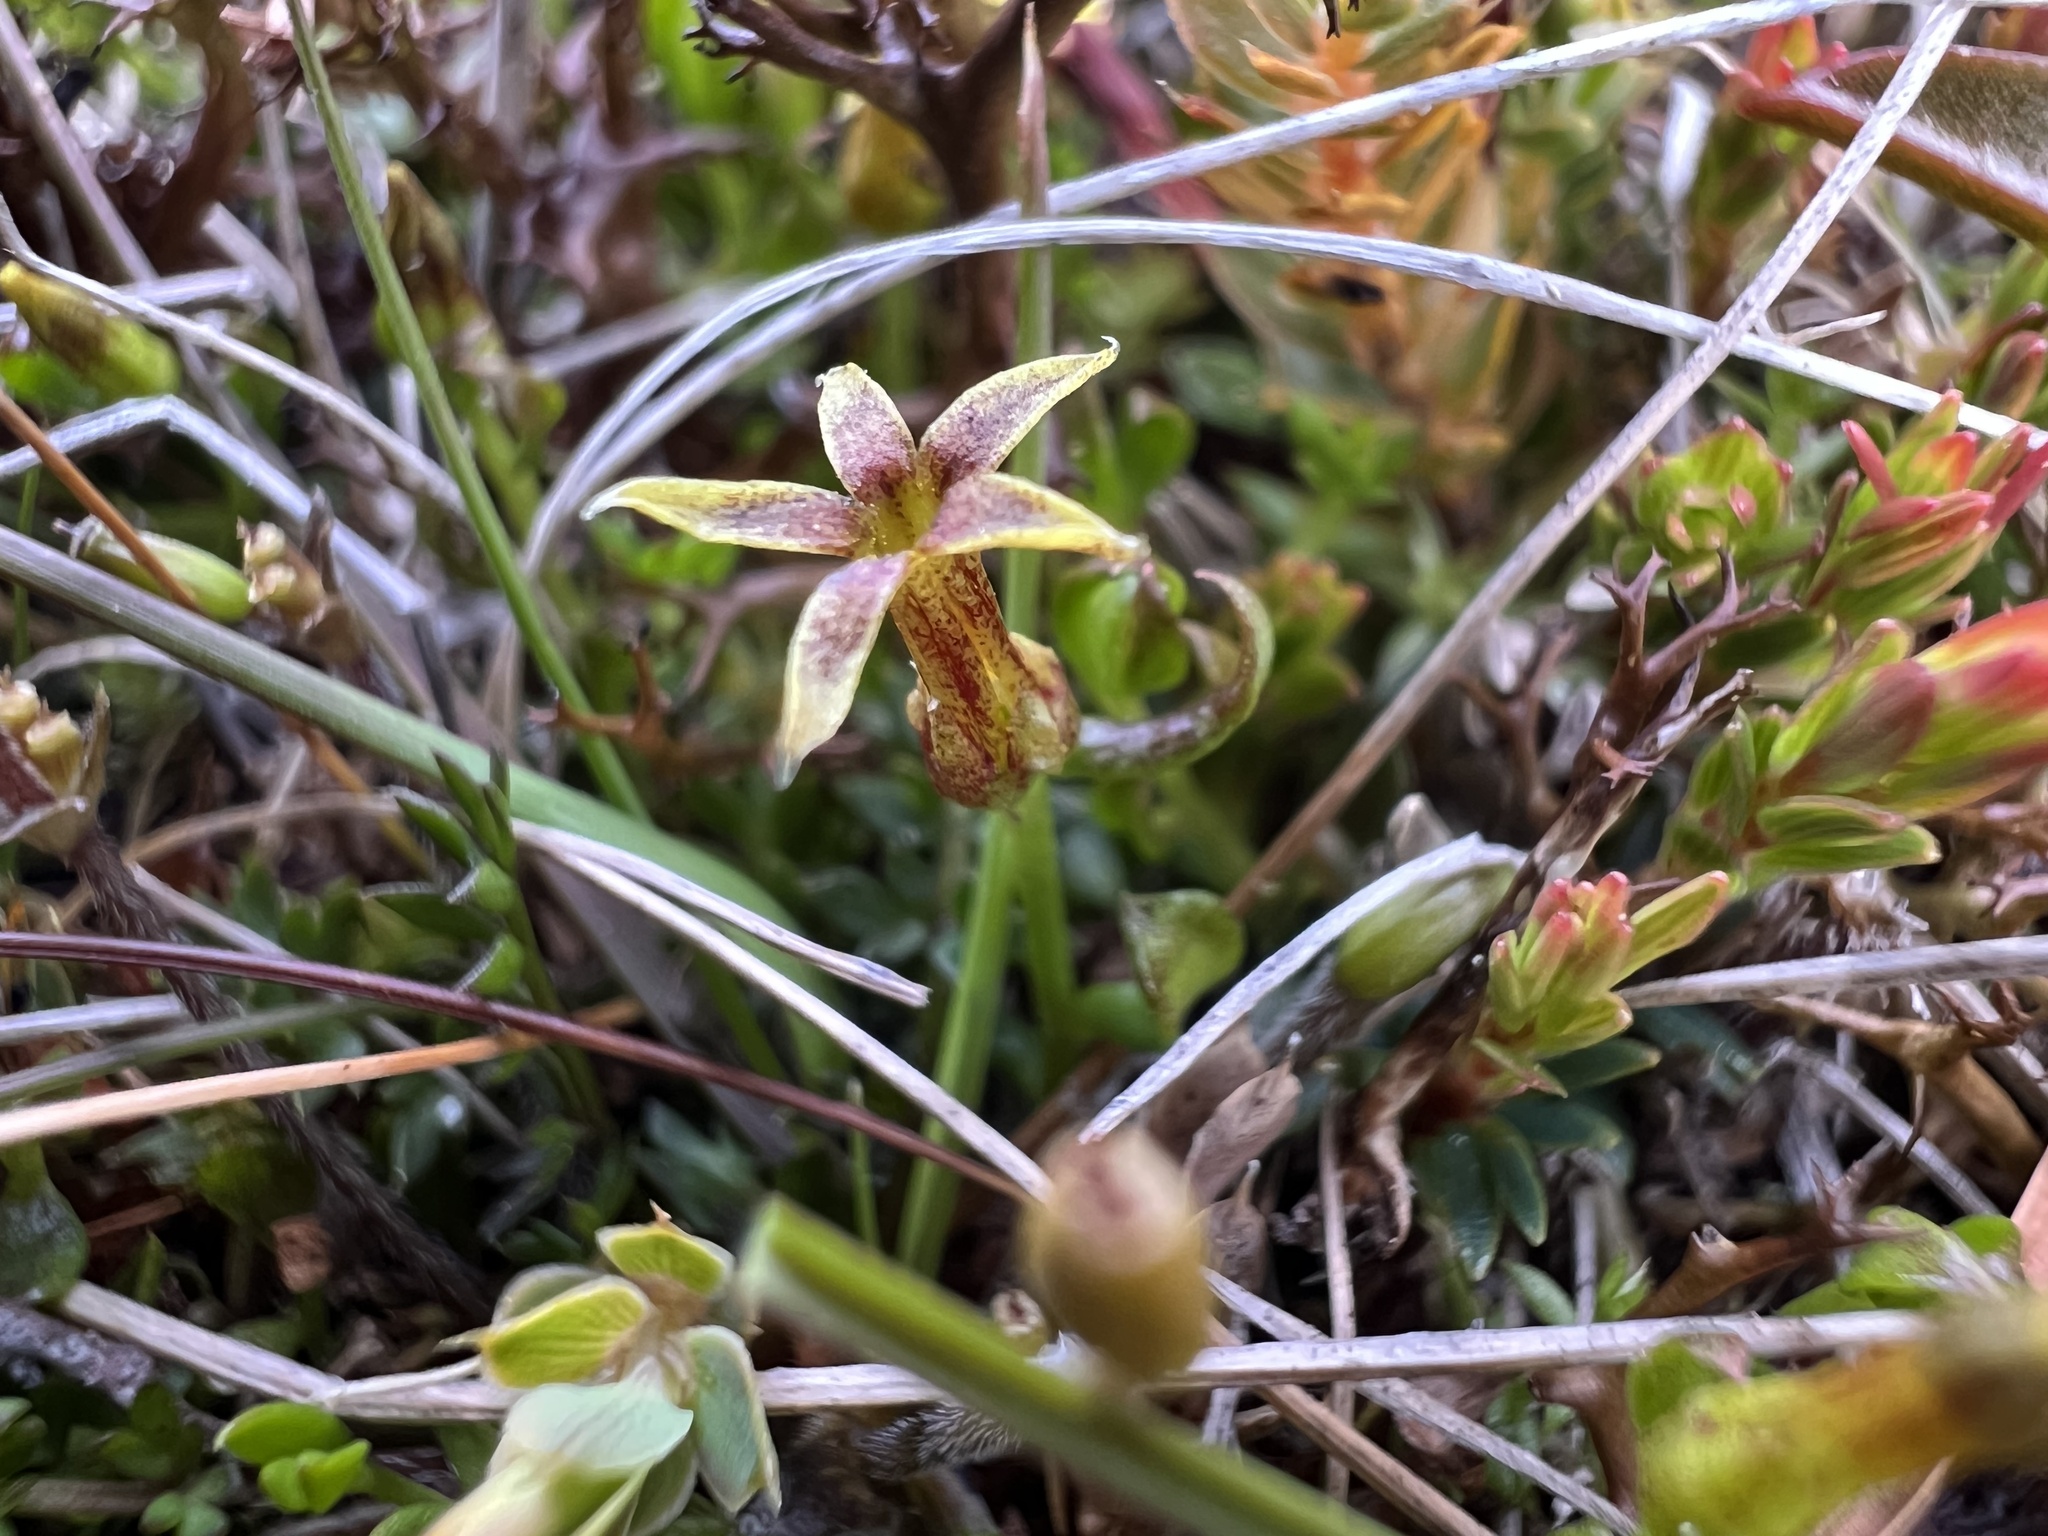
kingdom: Plantae
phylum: Tracheophyta
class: Magnoliopsida
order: Celastrales
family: Celastraceae
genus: Stackhousia
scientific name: Stackhousia minima
